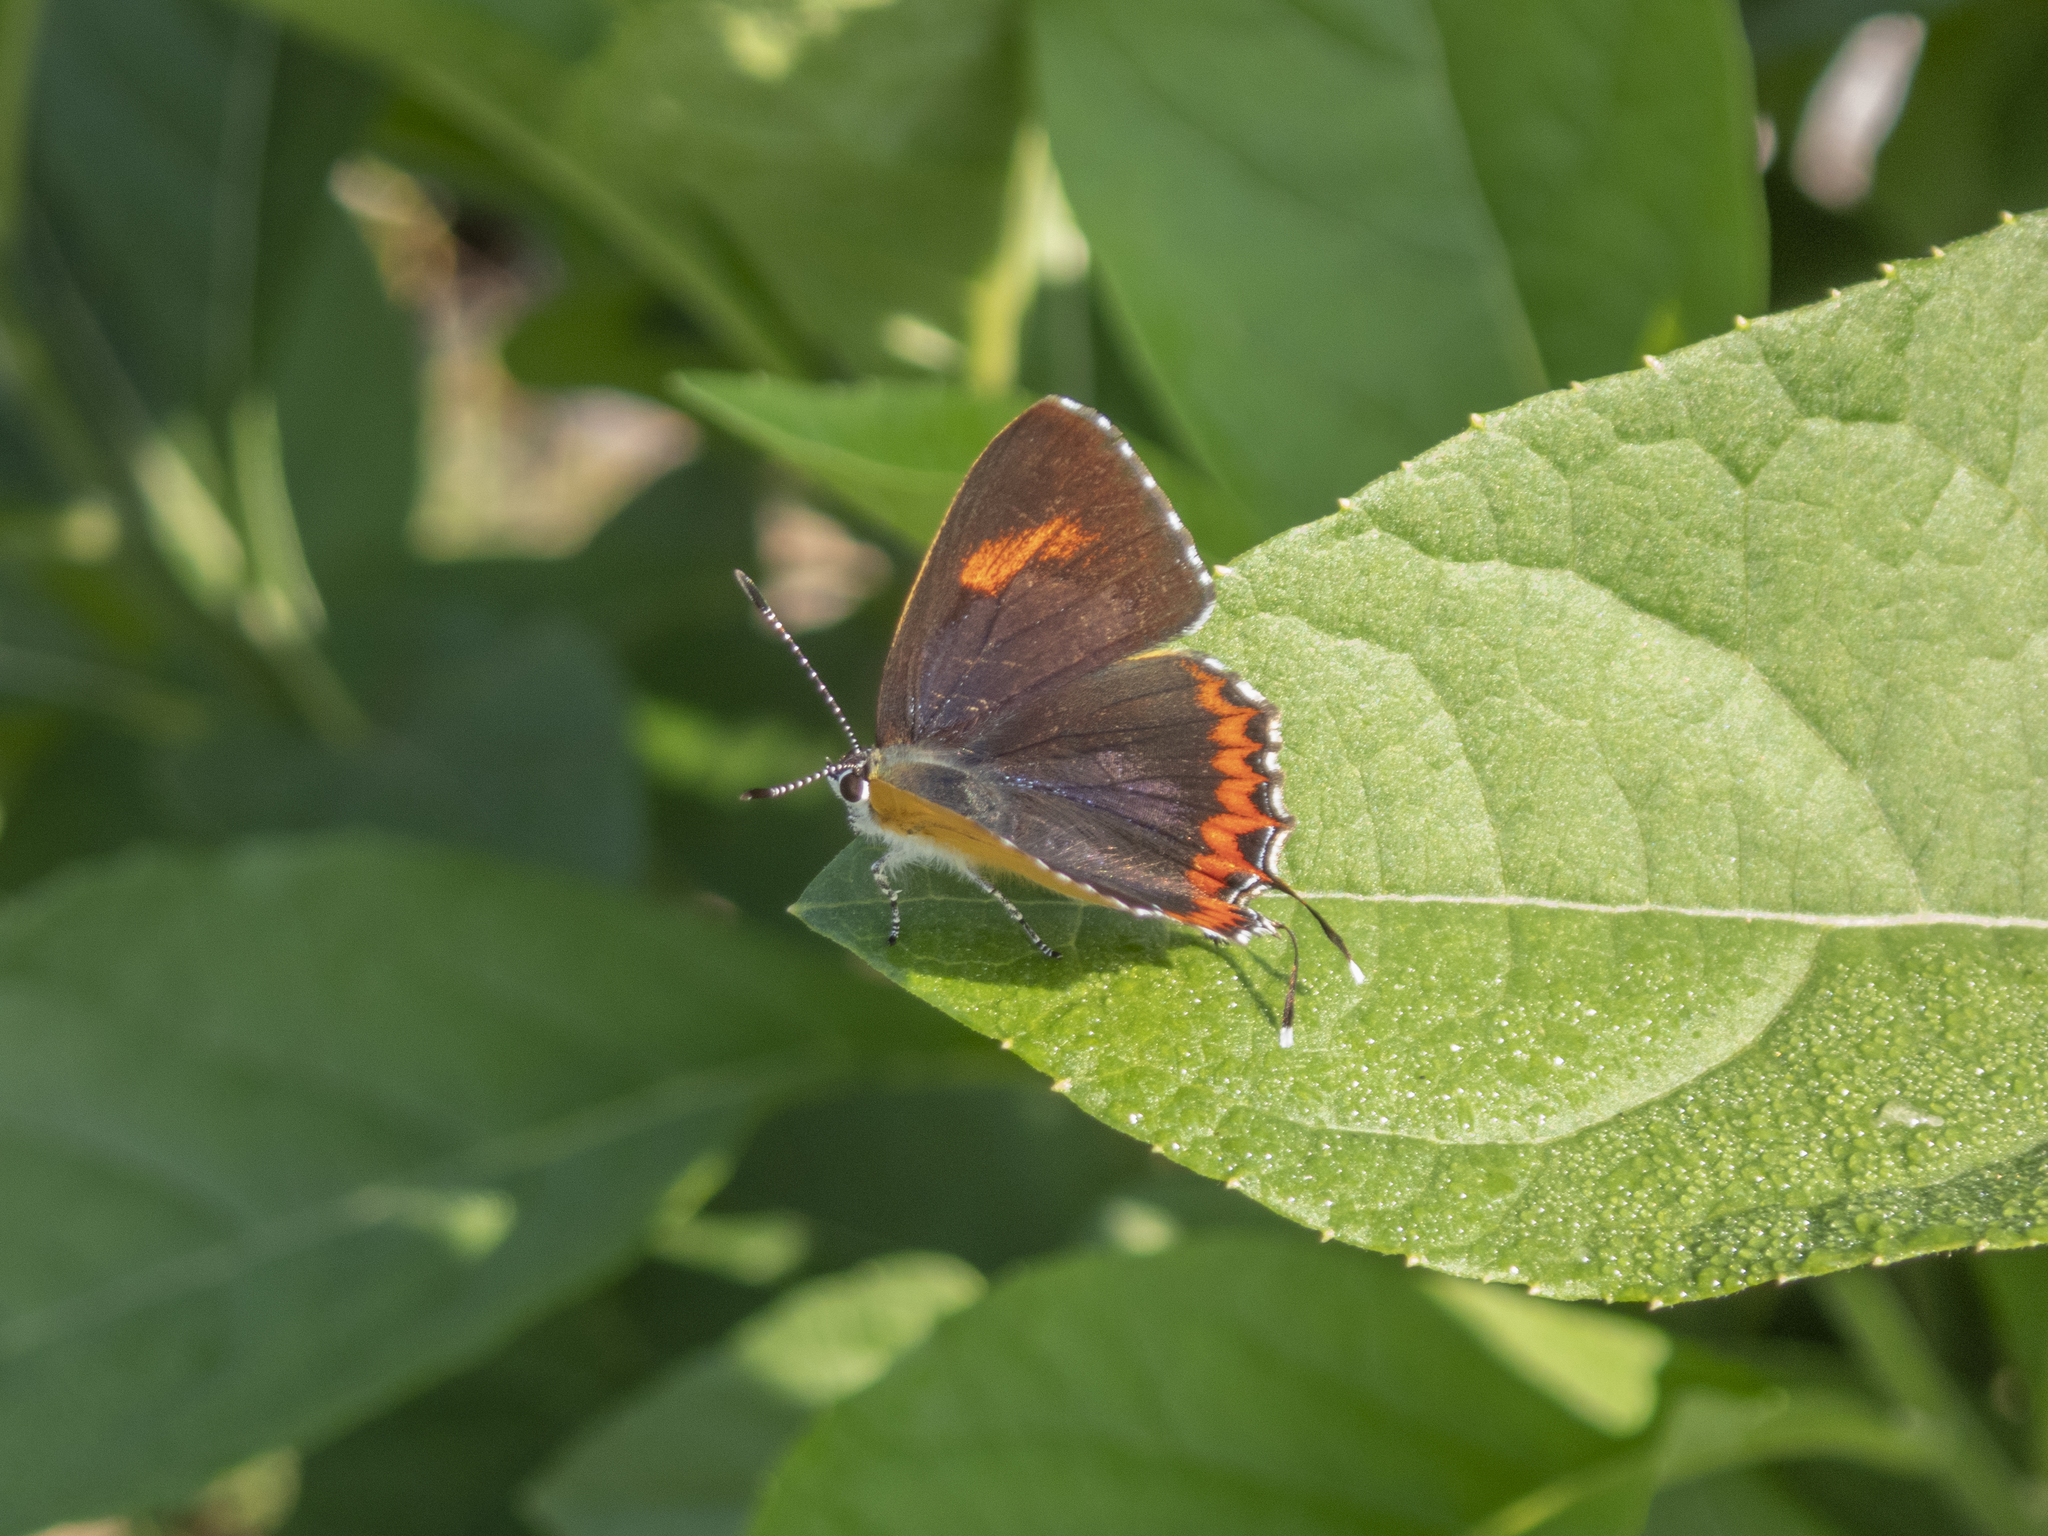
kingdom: Animalia
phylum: Arthropoda
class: Insecta
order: Lepidoptera
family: Lycaenidae
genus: Heliophorus
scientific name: Heliophorus epicles
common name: Purple sapphire
